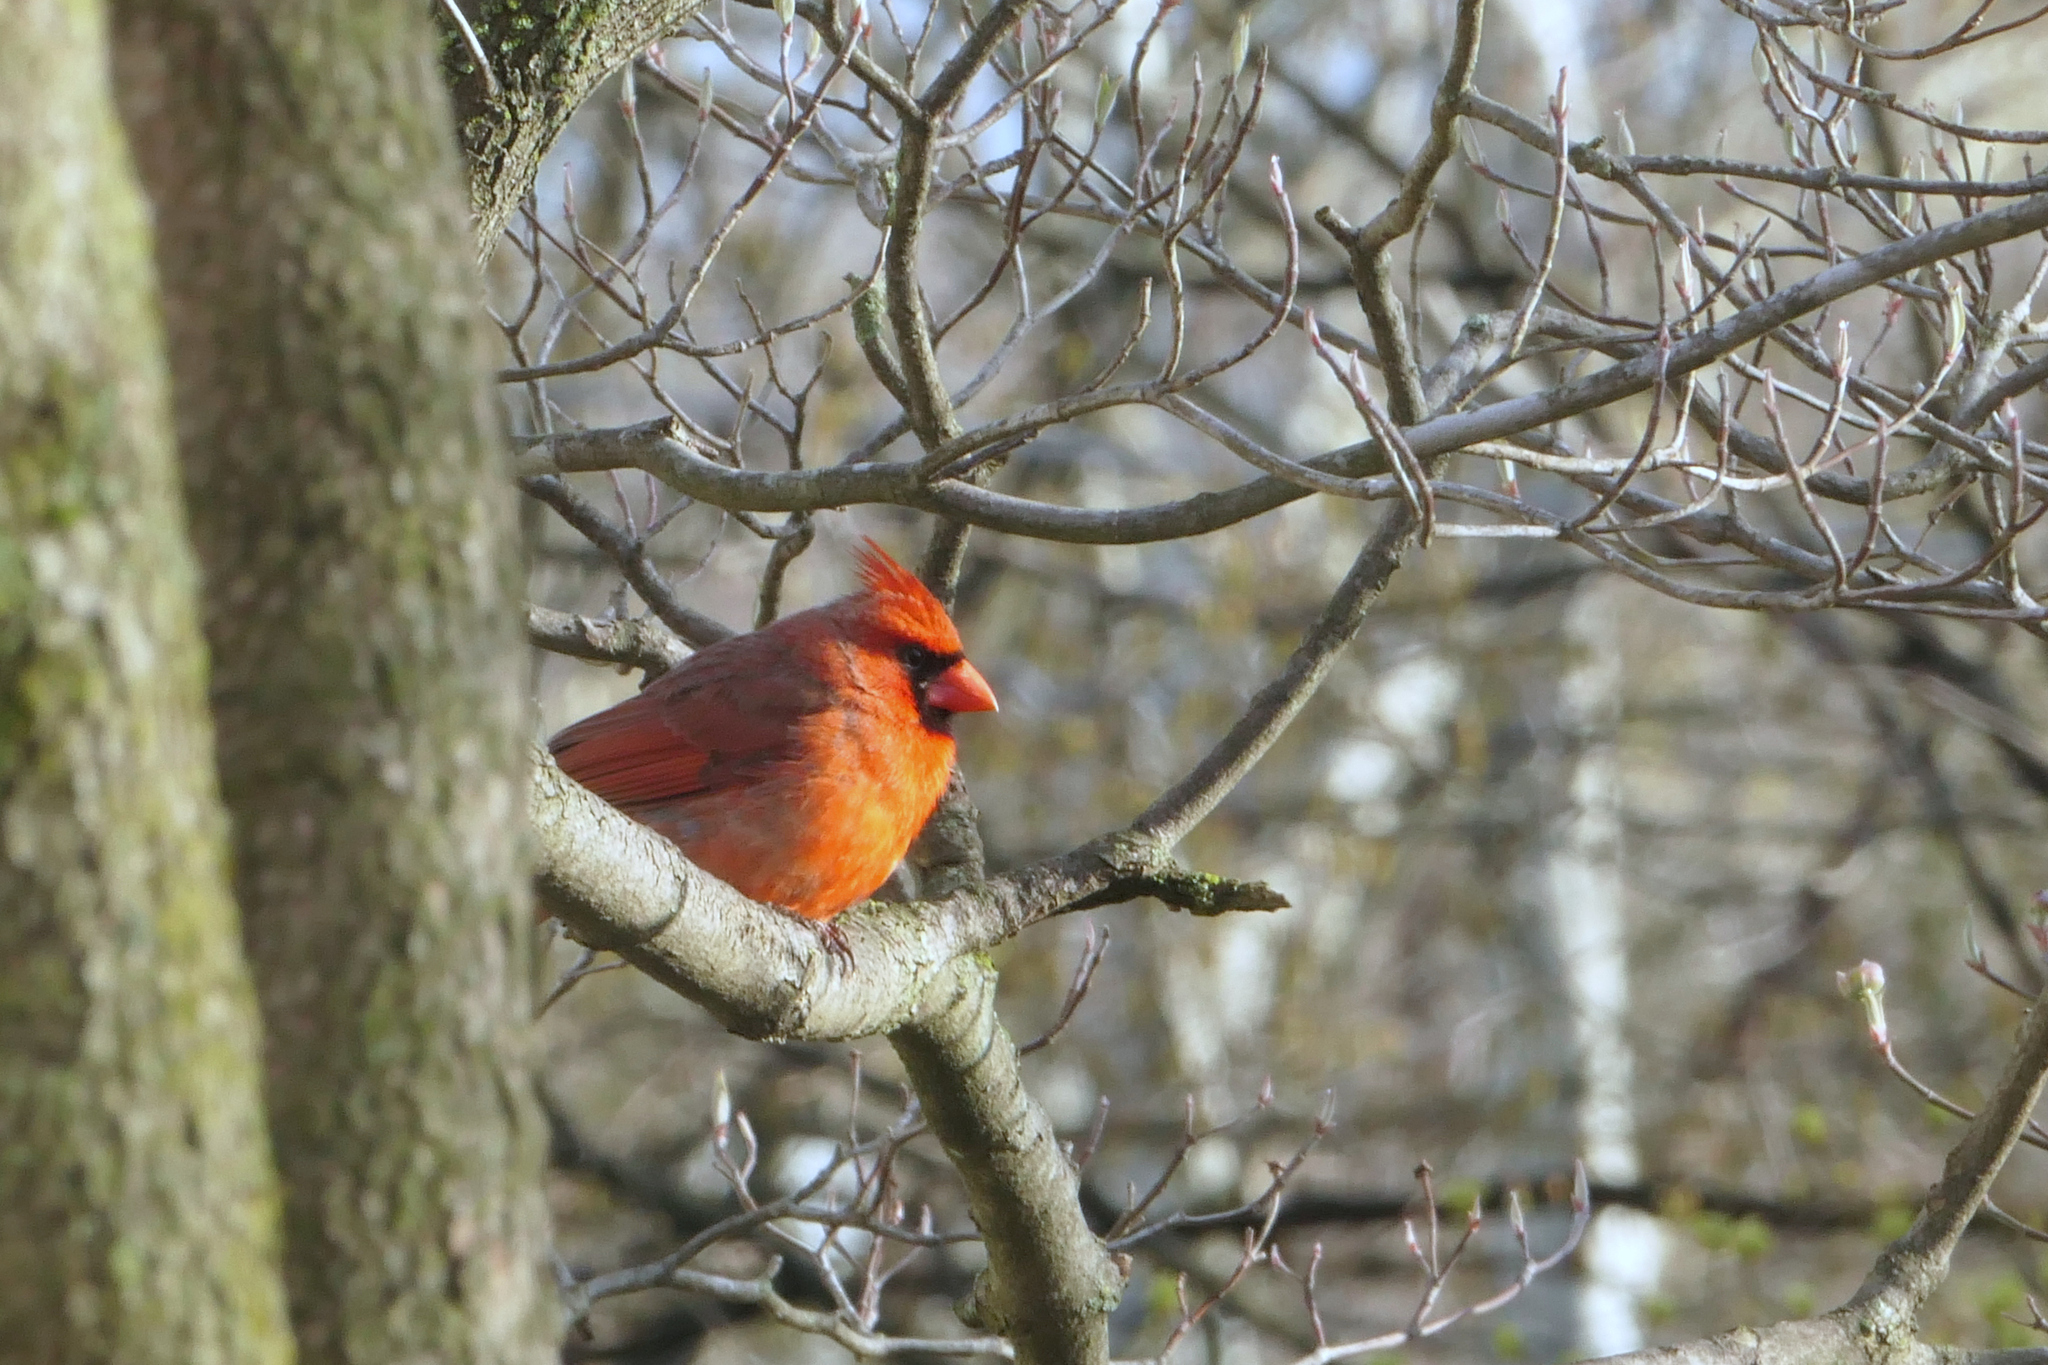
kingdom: Animalia
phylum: Chordata
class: Aves
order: Passeriformes
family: Cardinalidae
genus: Cardinalis
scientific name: Cardinalis cardinalis
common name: Northern cardinal
